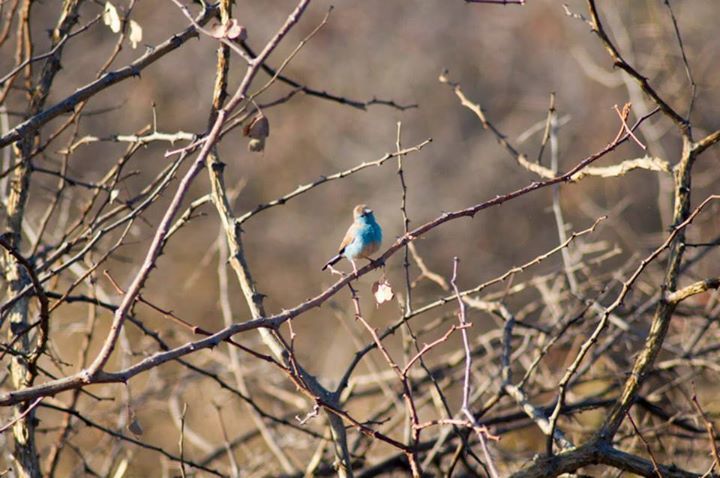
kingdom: Animalia
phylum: Chordata
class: Aves
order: Passeriformes
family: Estrildidae
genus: Uraeginthus
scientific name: Uraeginthus angolensis
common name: Blue waxbill
